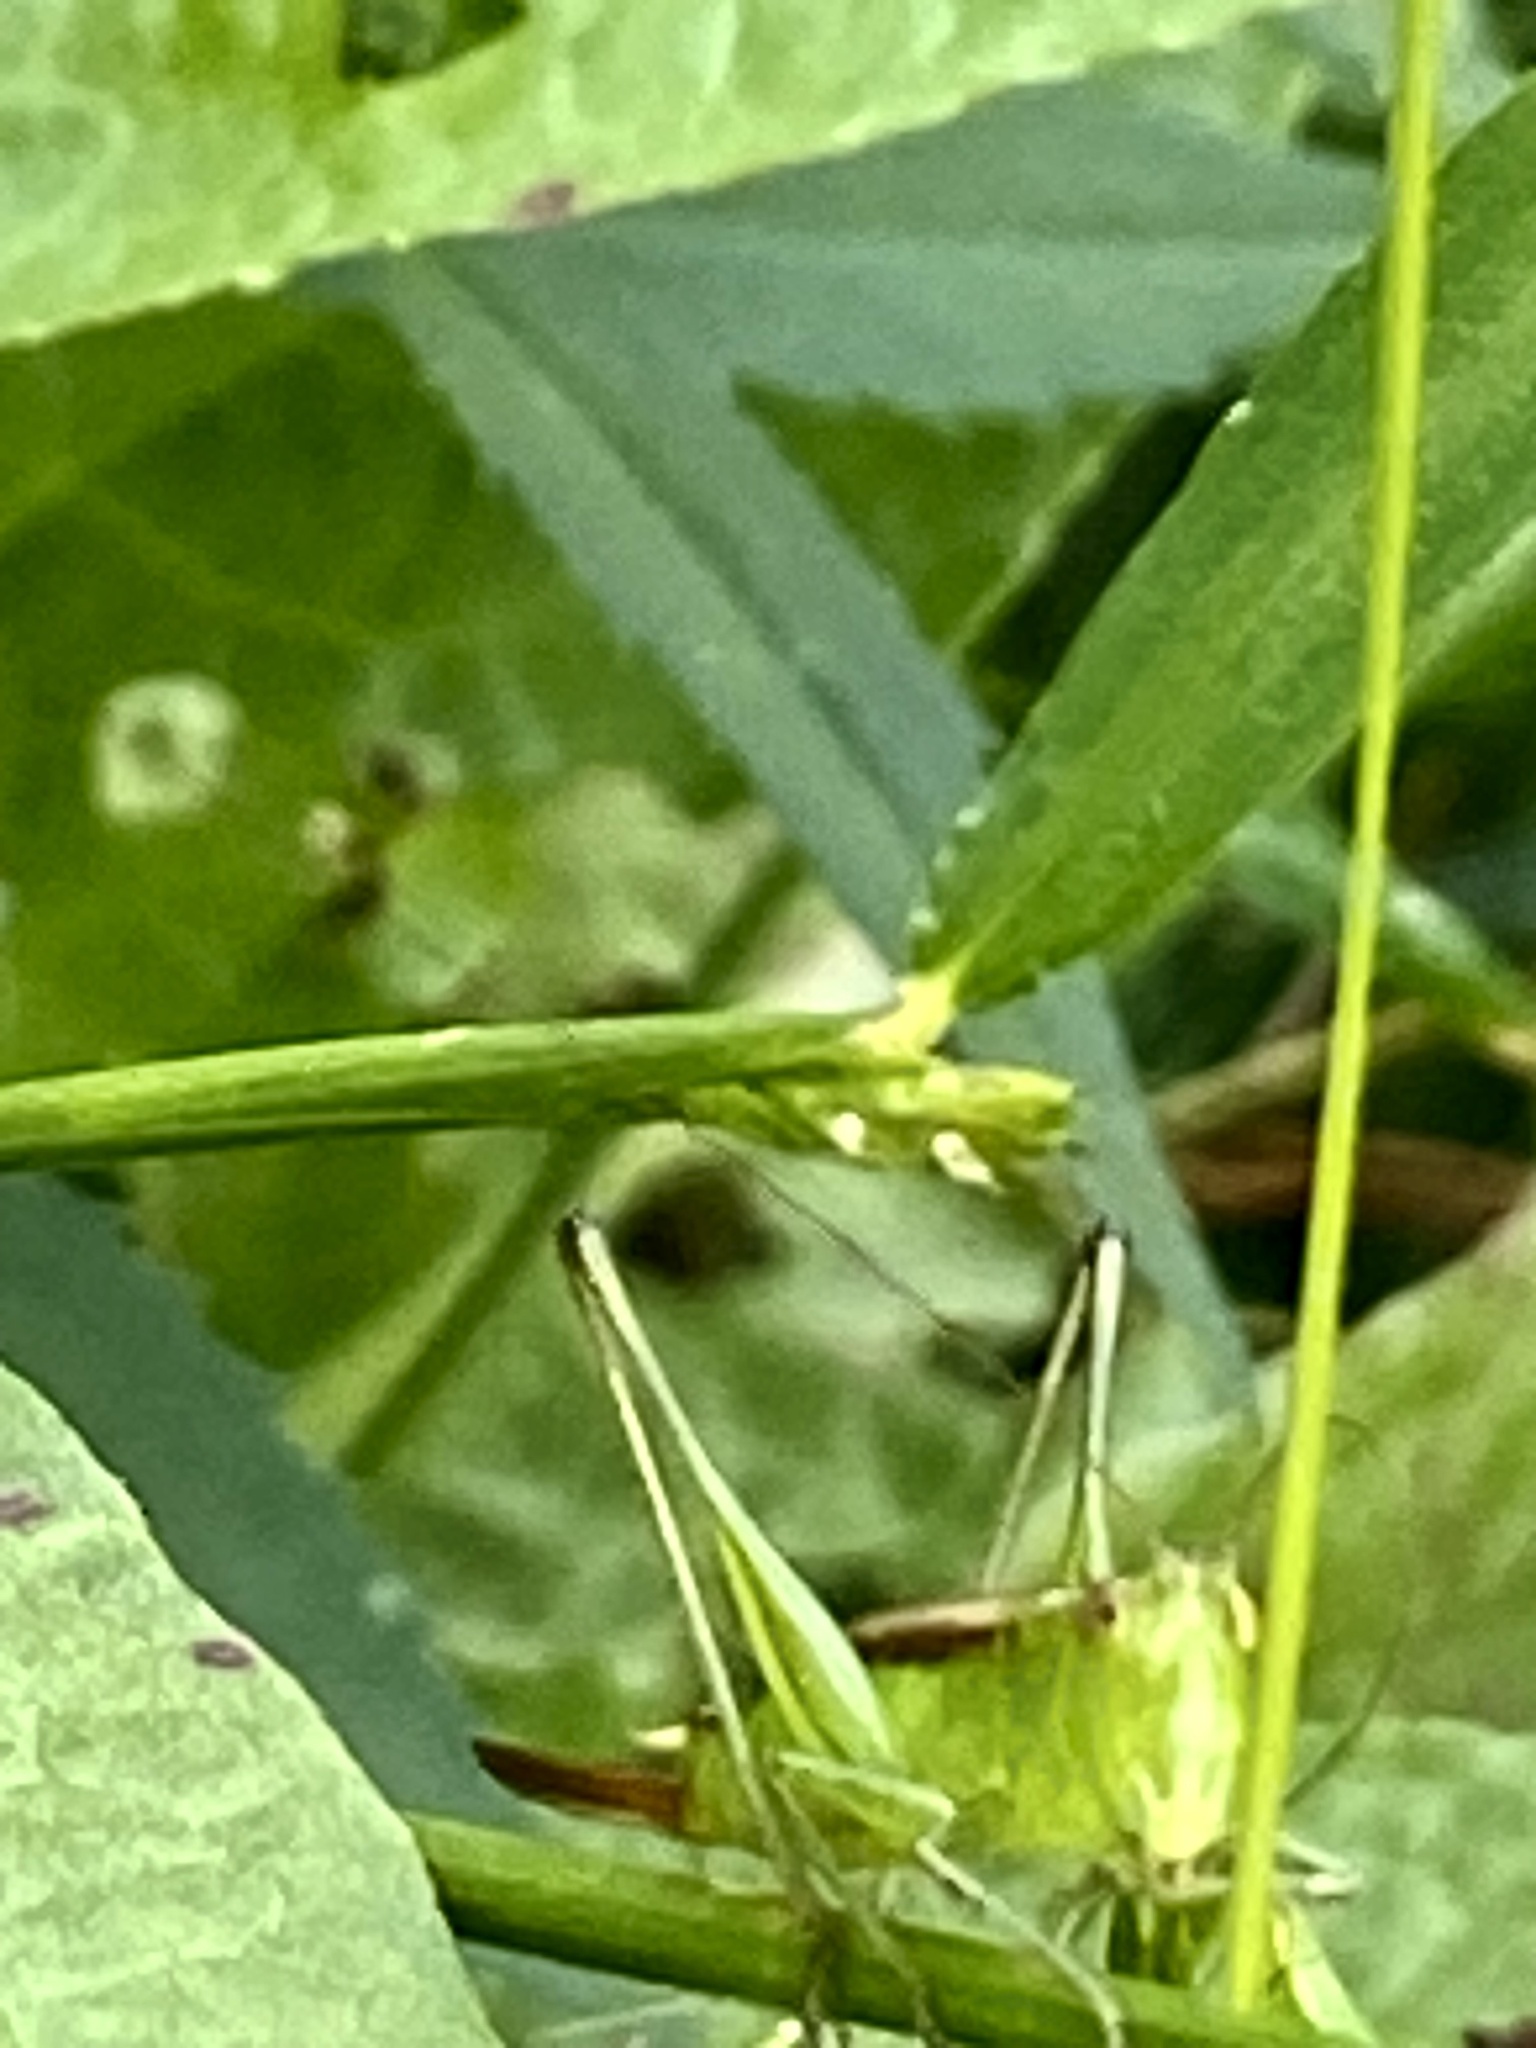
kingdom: Animalia
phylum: Arthropoda
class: Insecta
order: Orthoptera
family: Tettigoniidae
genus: Conocephalus
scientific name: Conocephalus brevipennis
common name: Short-winged meadow katydid
